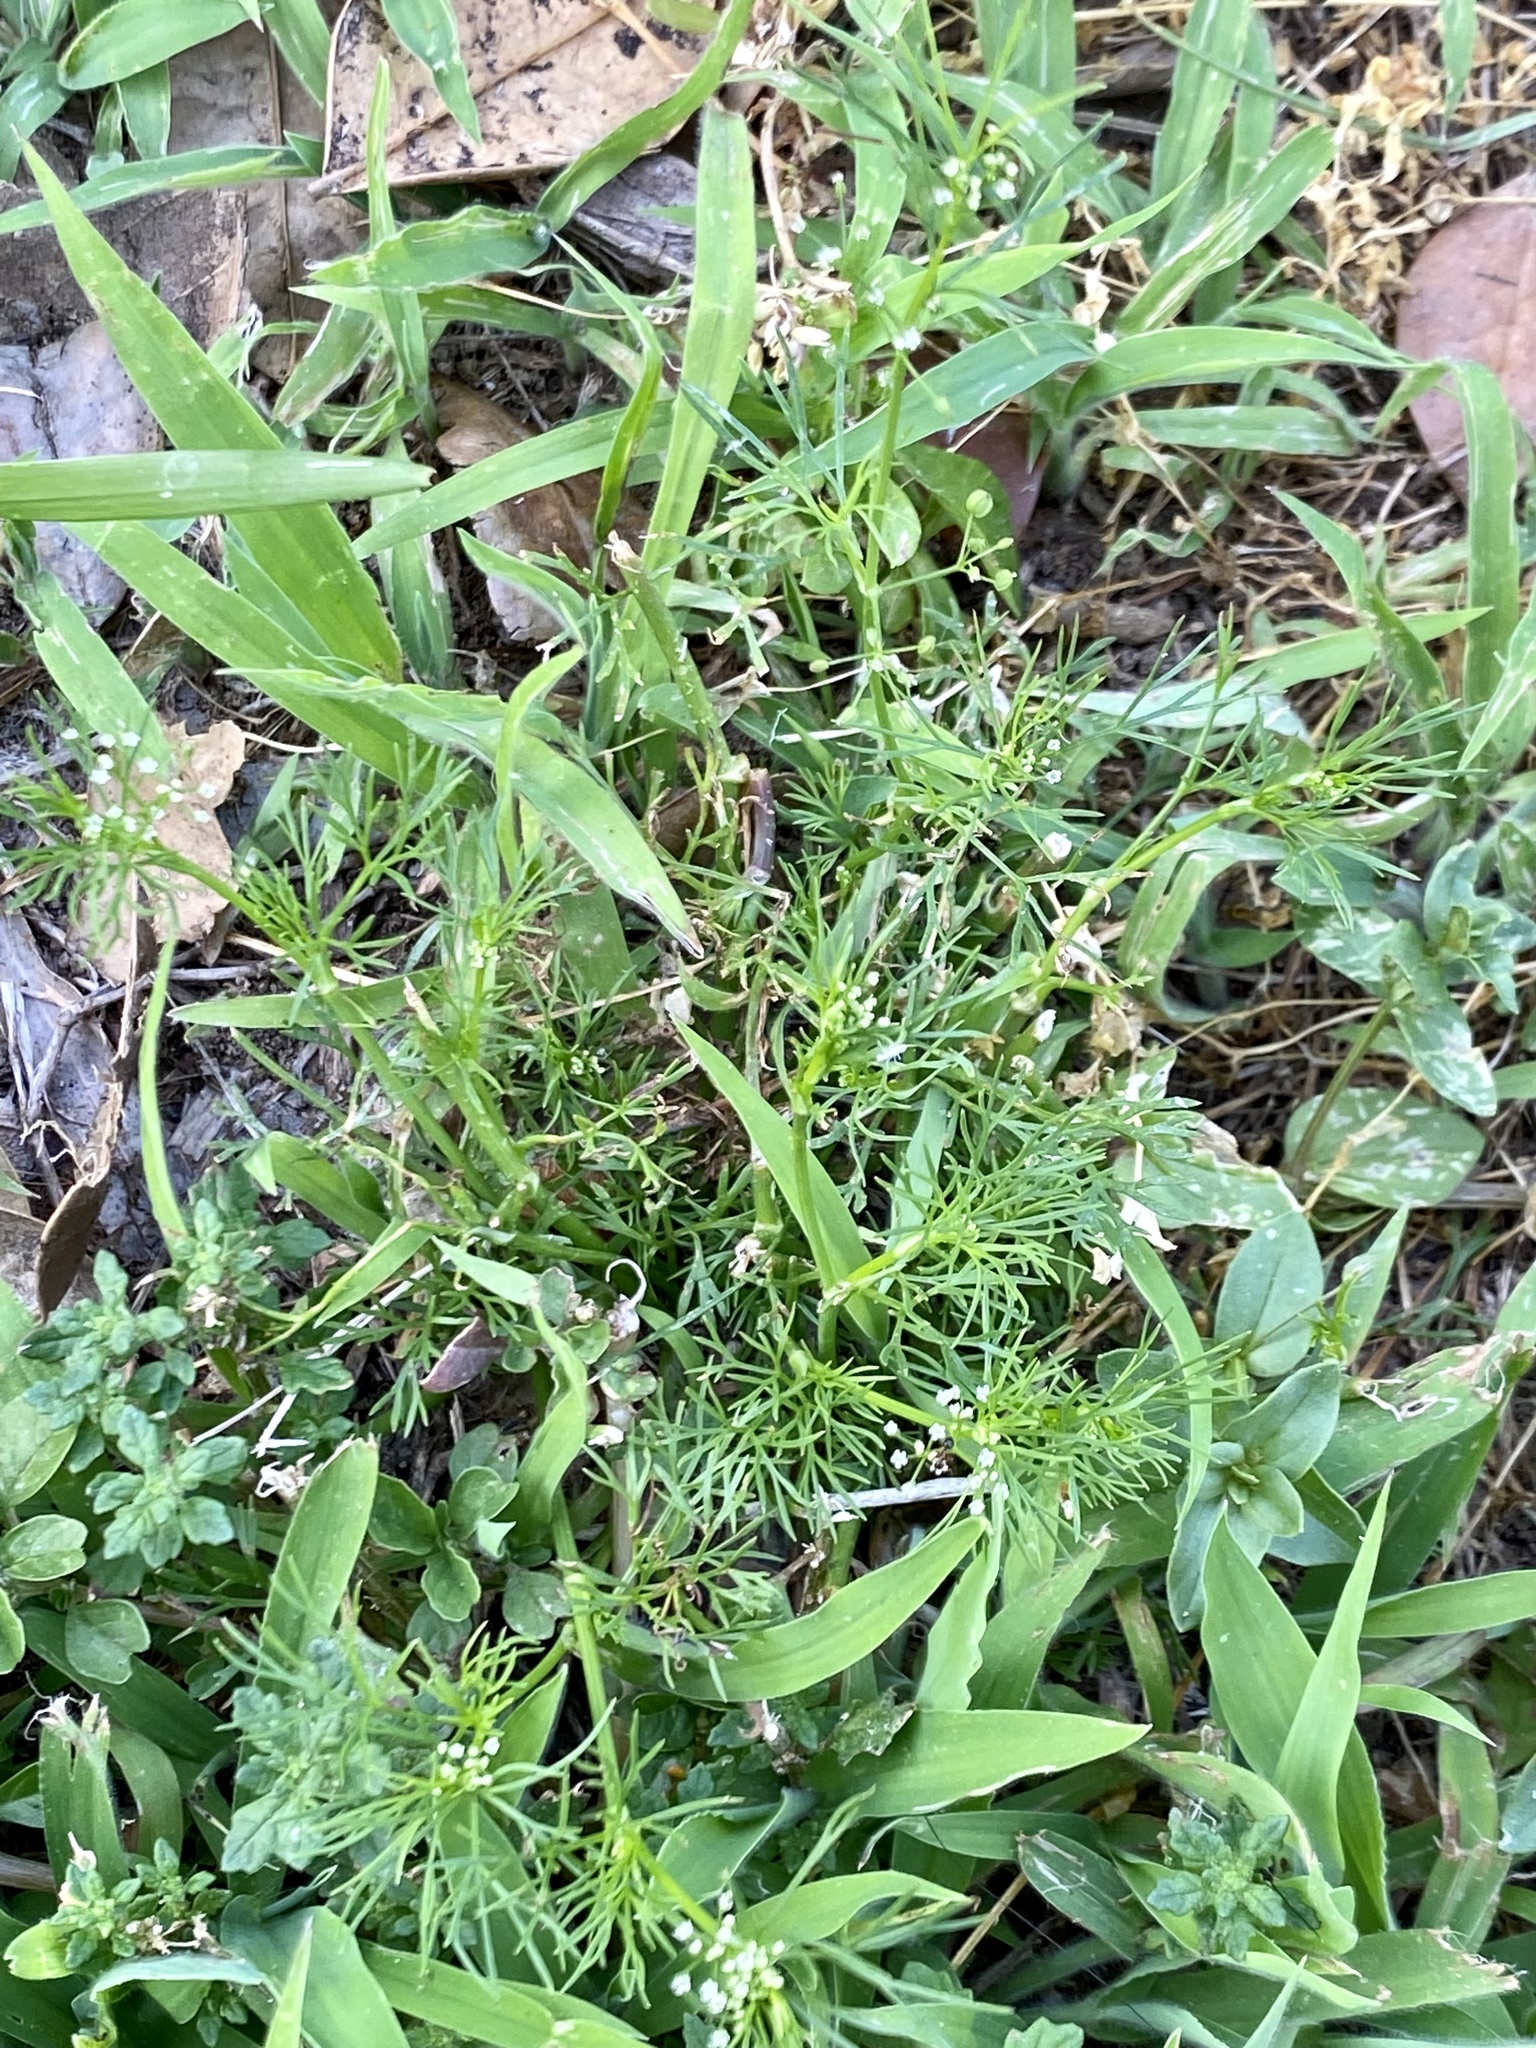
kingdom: Plantae
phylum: Tracheophyta
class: Magnoliopsida
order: Apiales
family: Apiaceae
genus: Ptilimnium
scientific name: Ptilimnium capillaceum
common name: Herbwilliam
